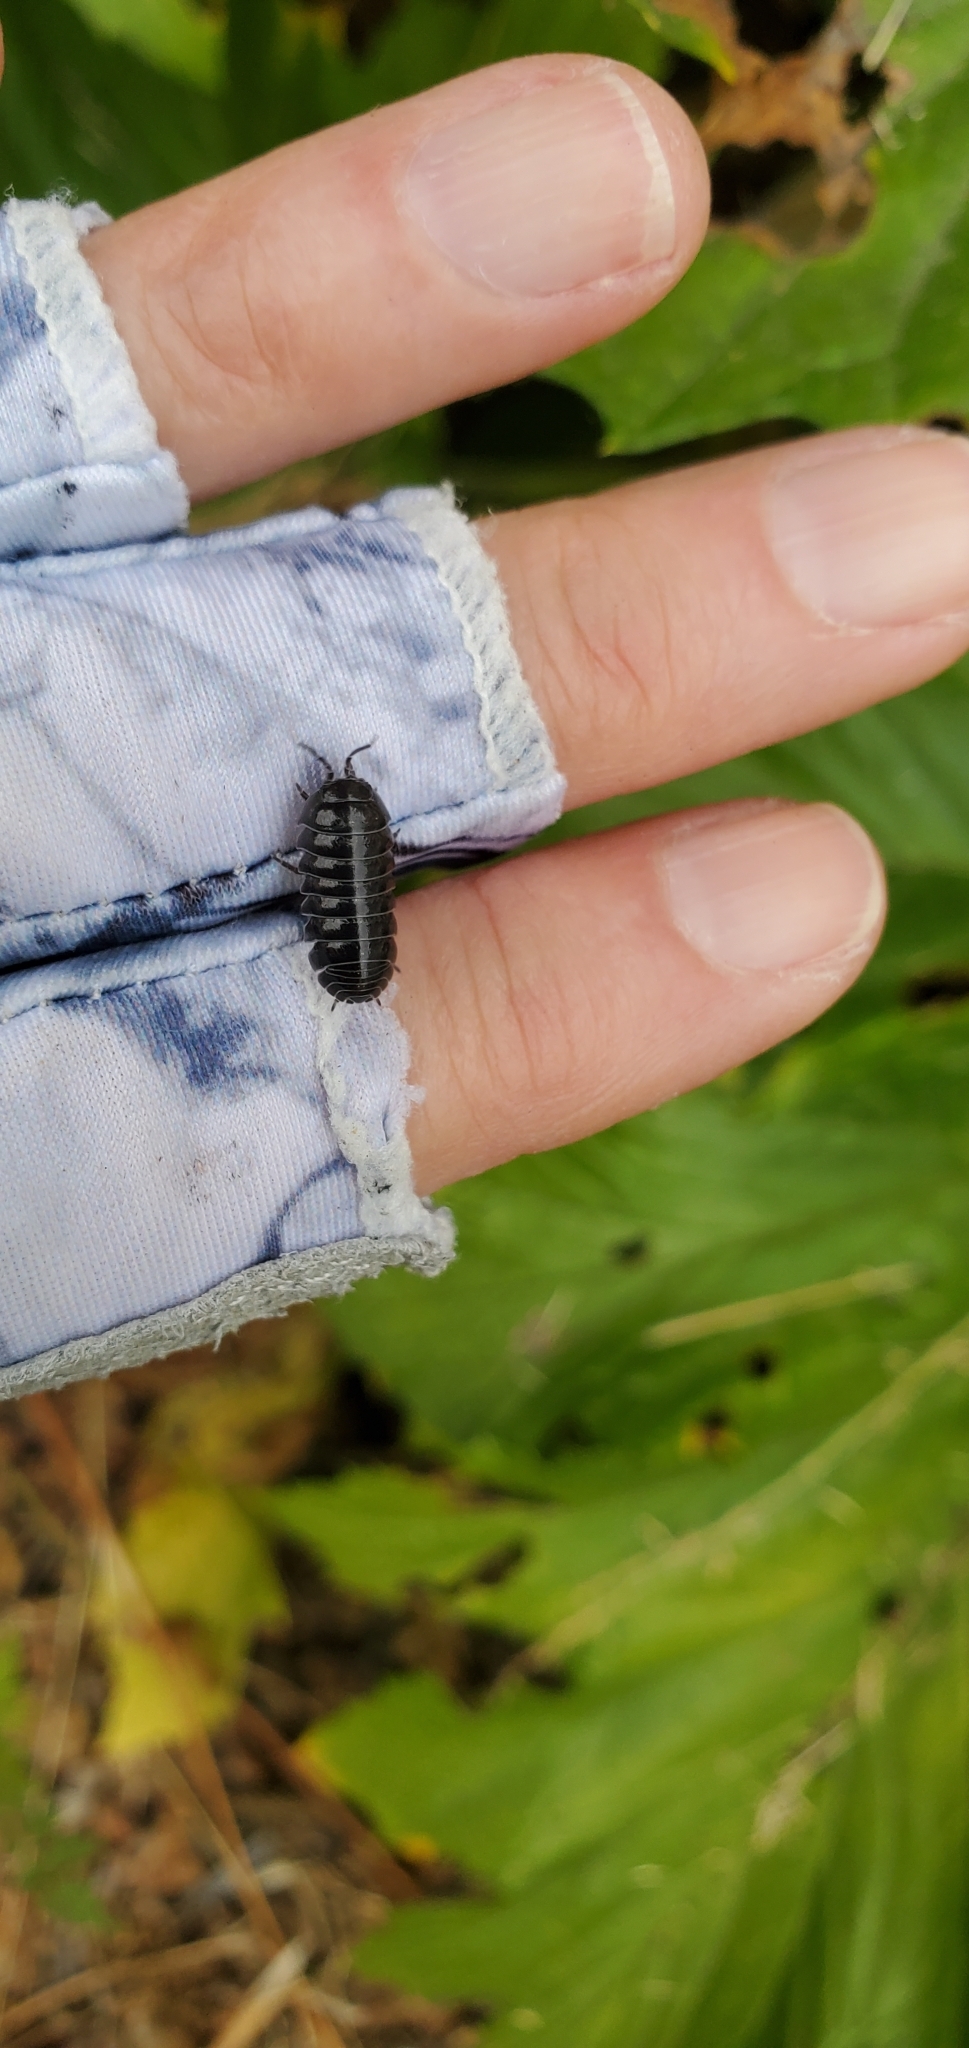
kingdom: Animalia
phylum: Arthropoda
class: Malacostraca
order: Isopoda
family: Armadillidiidae
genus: Armadillidium
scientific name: Armadillidium vulgare
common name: Common pill woodlouse
